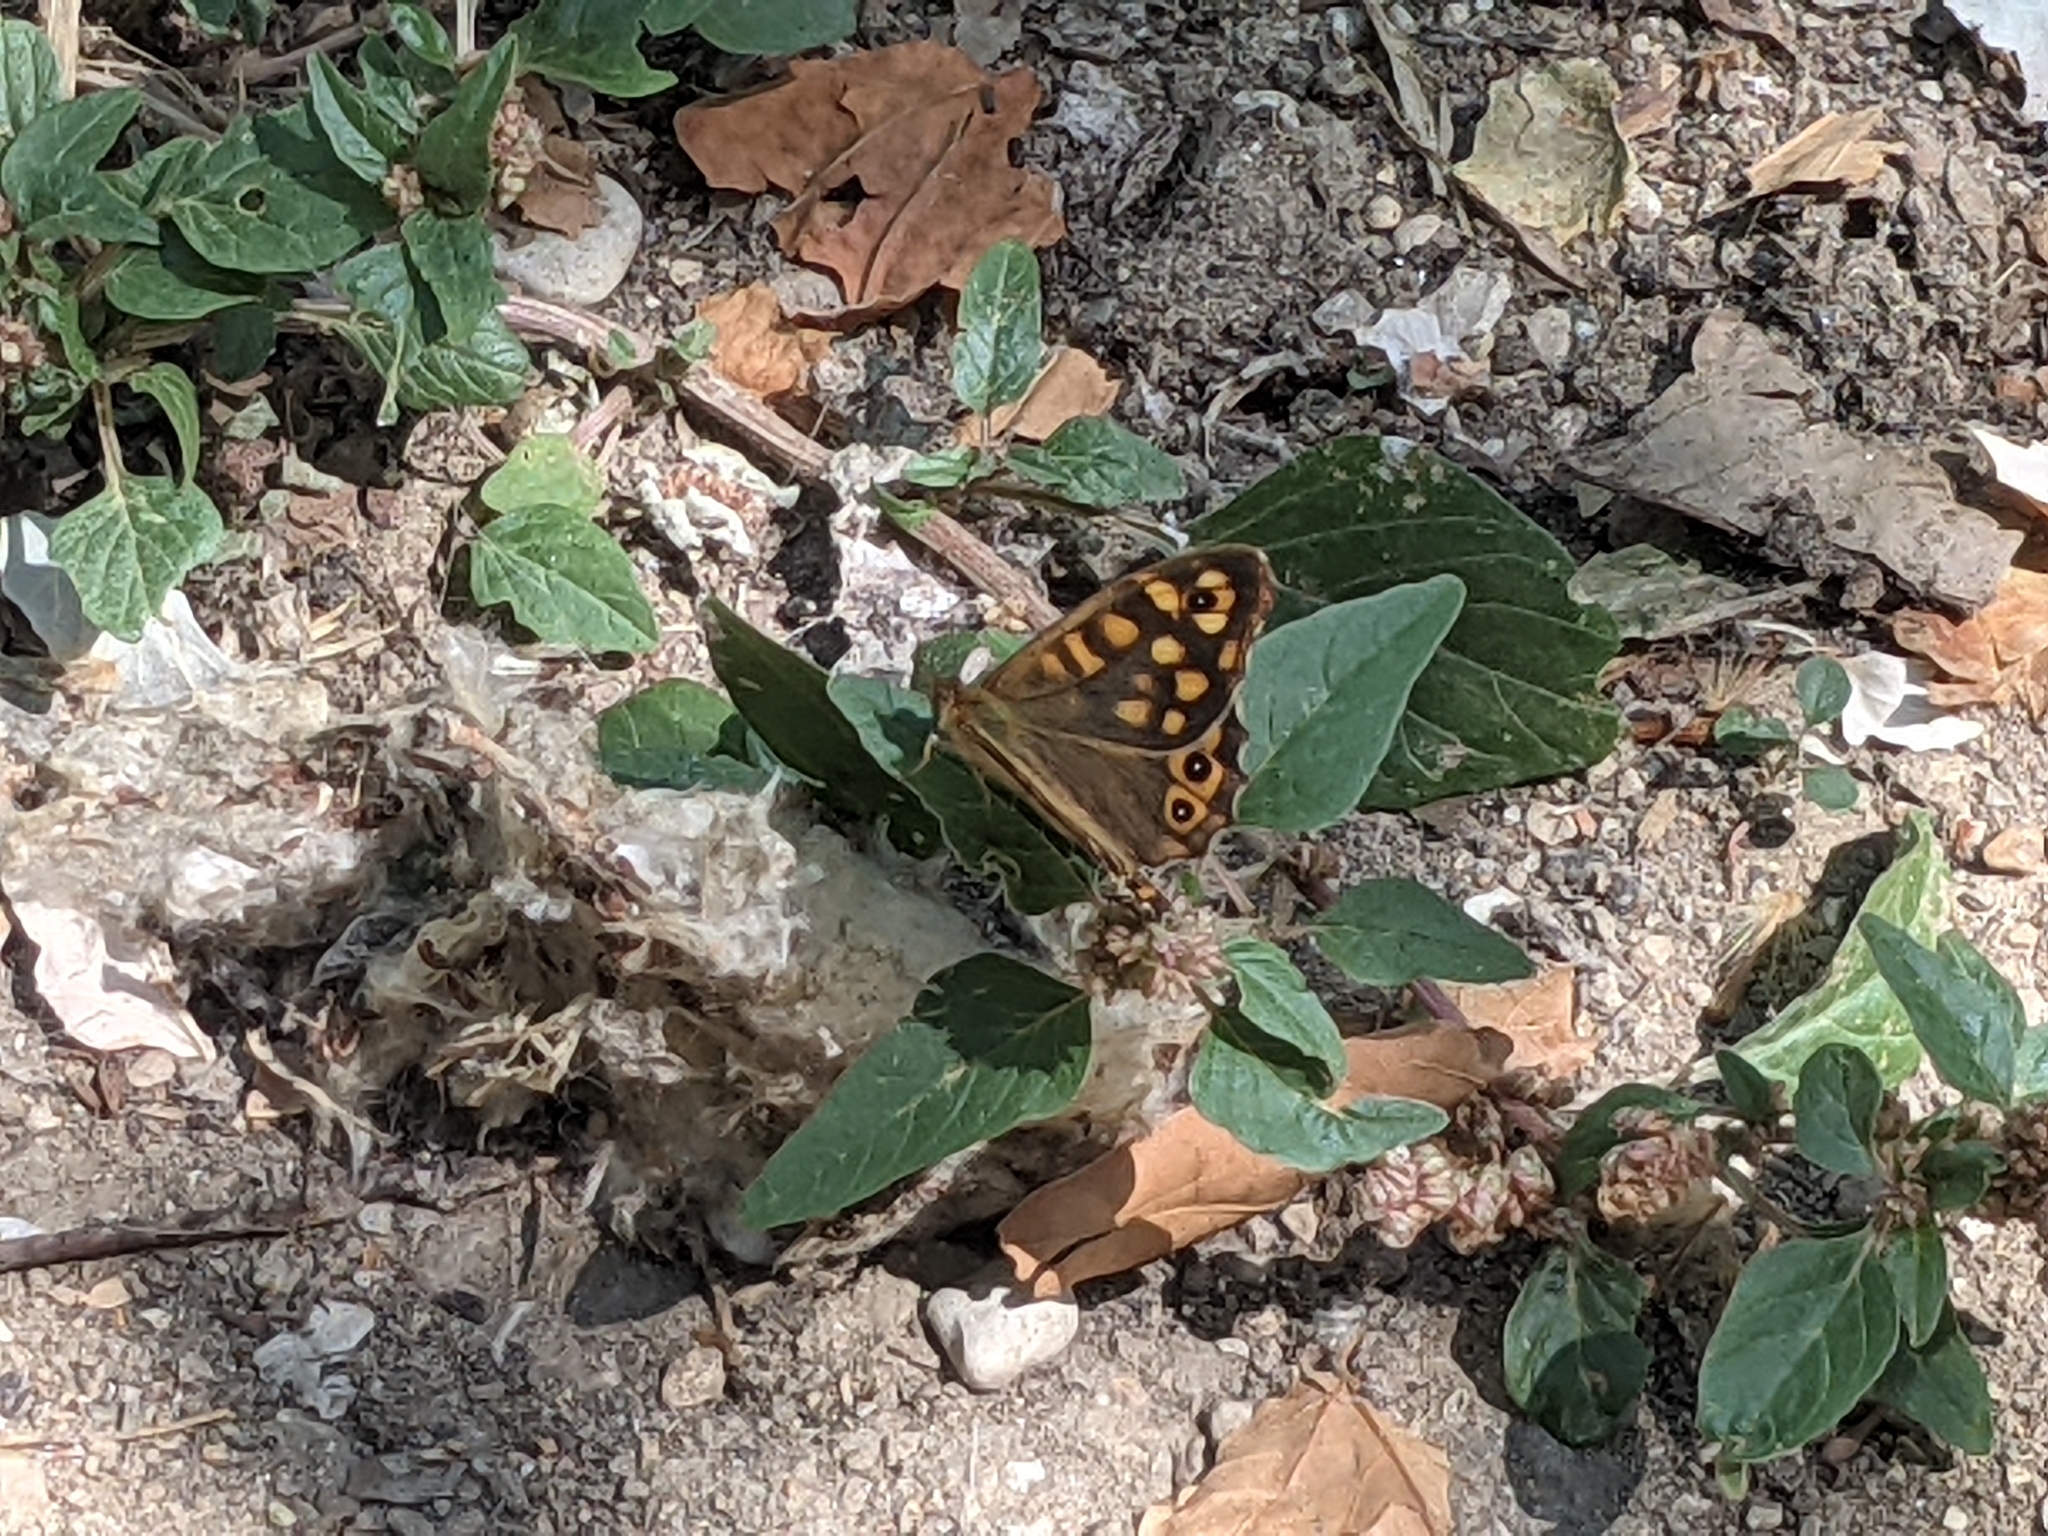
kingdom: Animalia
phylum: Arthropoda
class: Insecta
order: Lepidoptera
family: Nymphalidae
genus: Pararge
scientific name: Pararge aegeria
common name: Speckled wood
